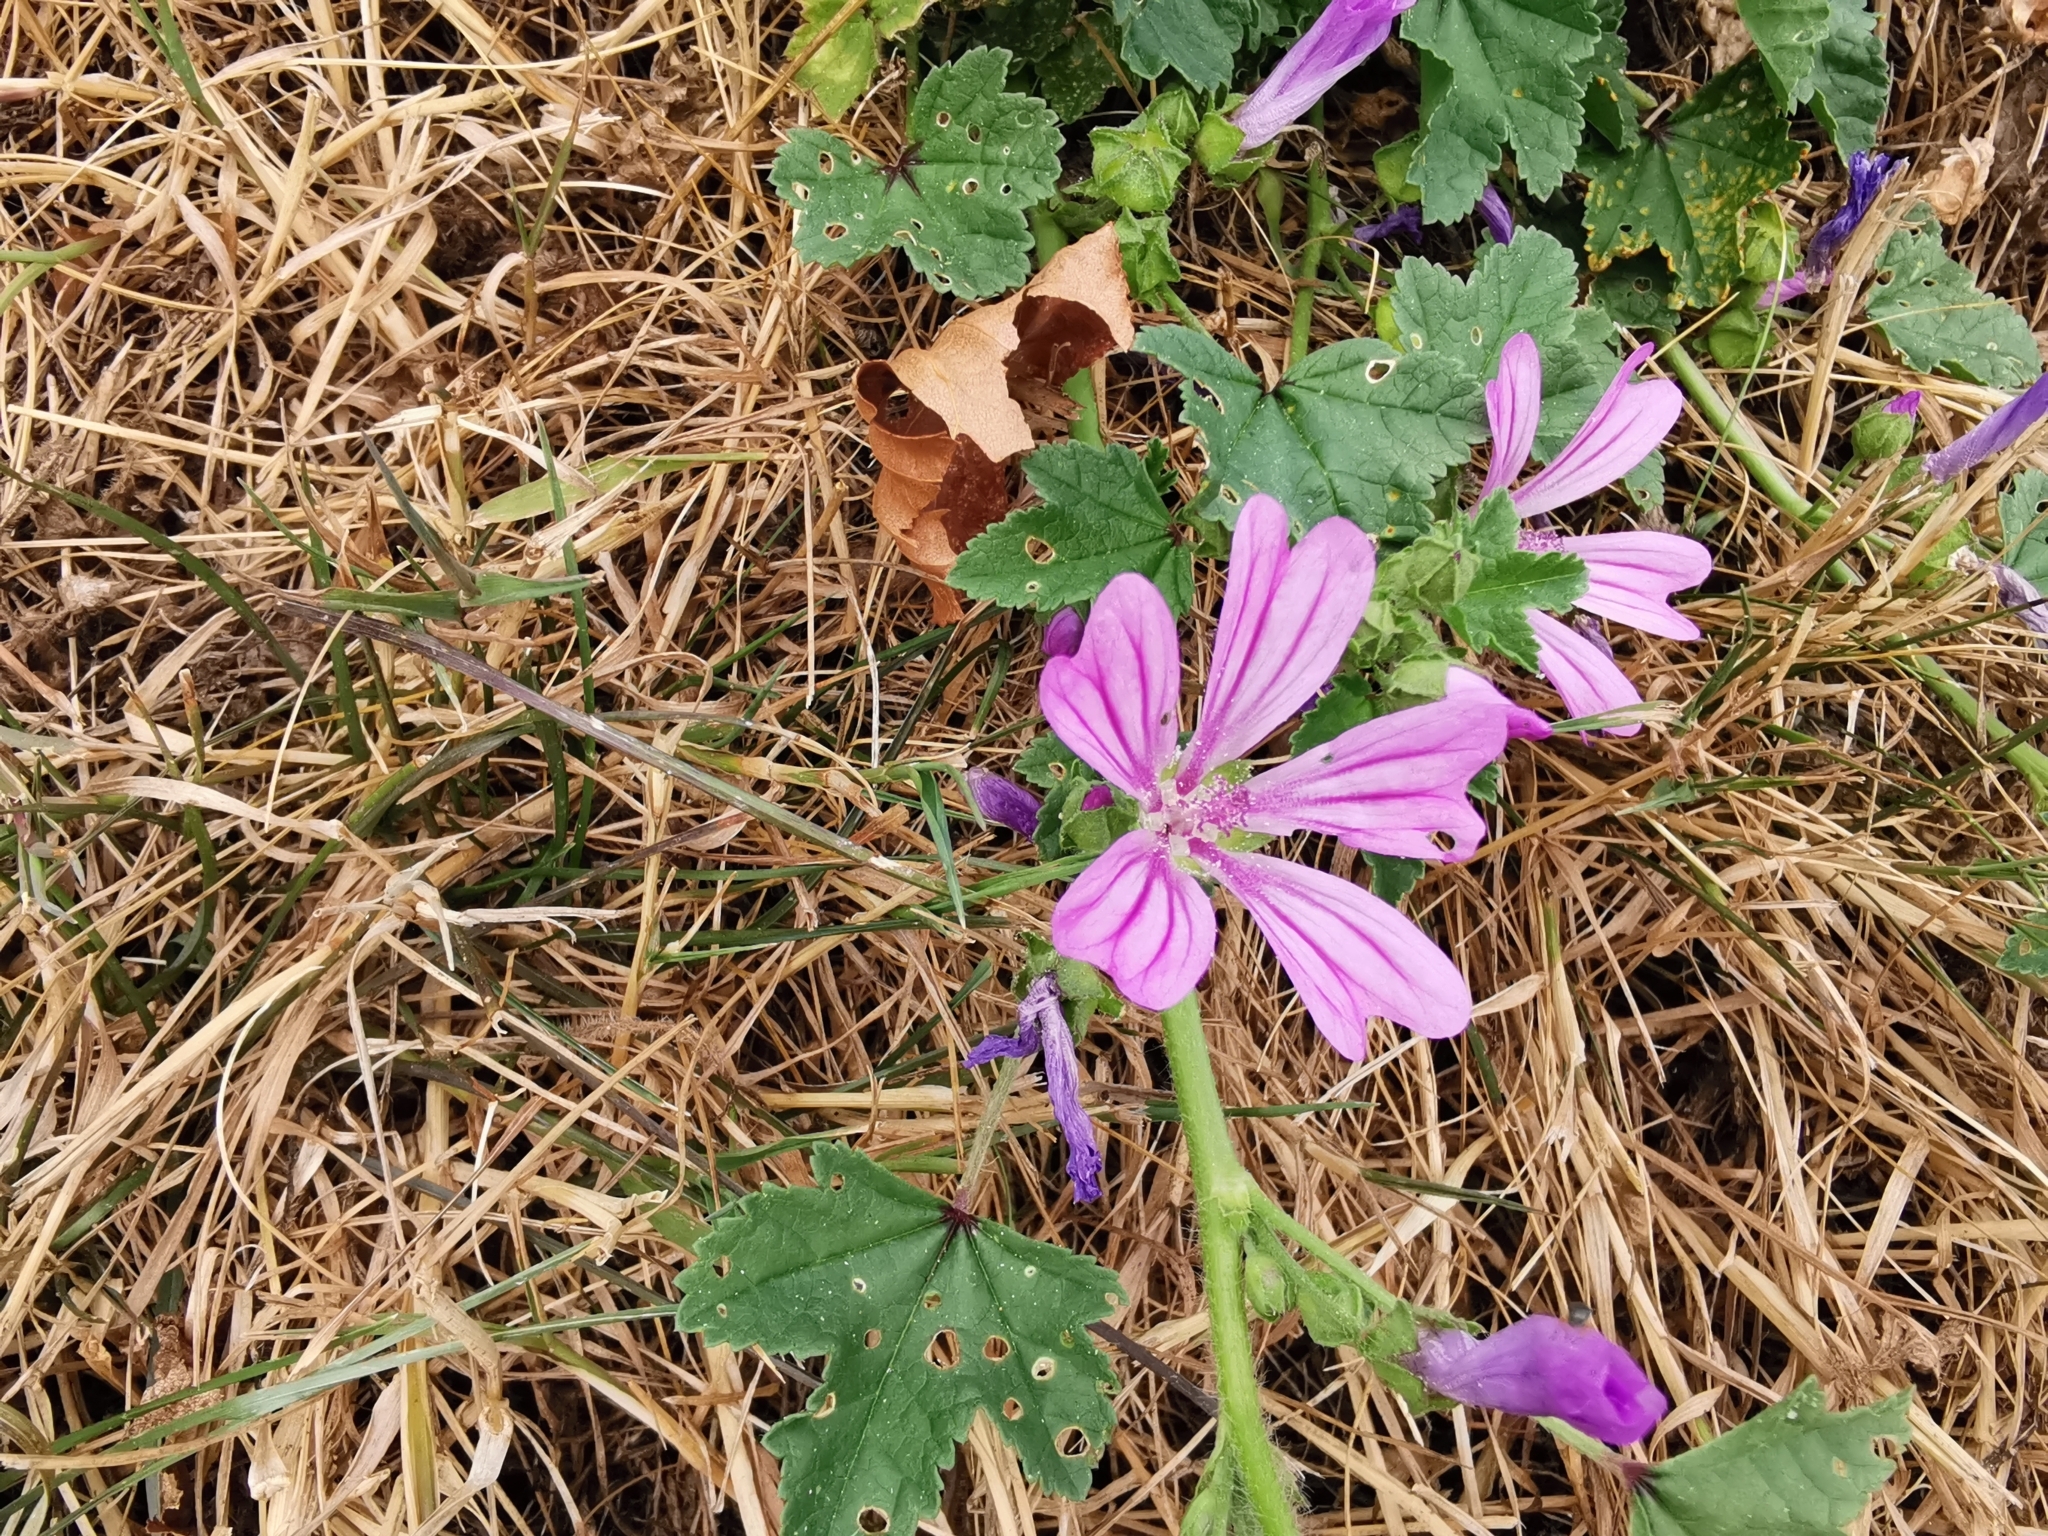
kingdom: Plantae
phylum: Tracheophyta
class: Magnoliopsida
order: Malvales
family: Malvaceae
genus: Malva
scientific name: Malva sylvestris
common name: Common mallow
